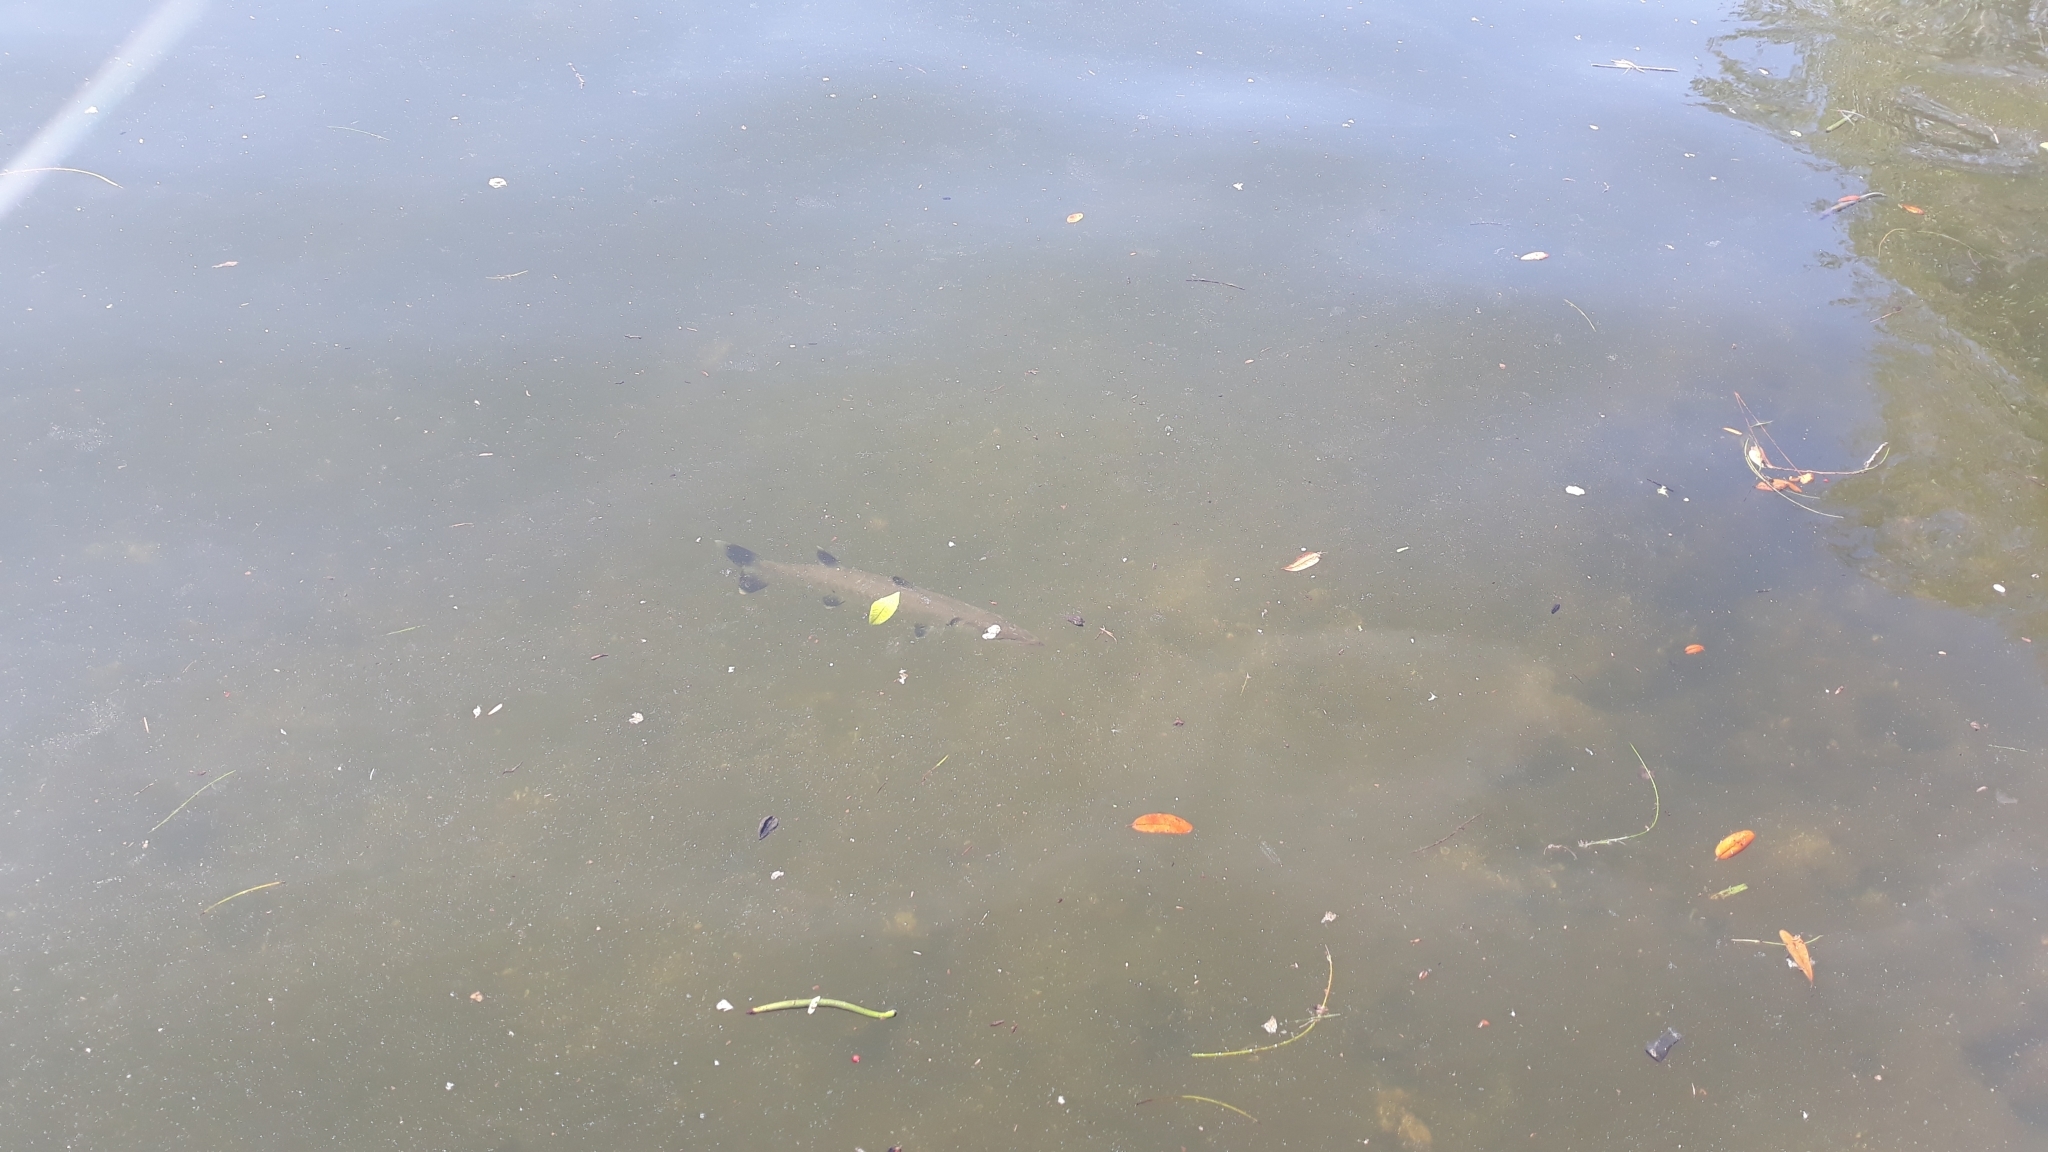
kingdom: Animalia
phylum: Chordata
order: Perciformes
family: Sphyraenidae
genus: Sphyraena
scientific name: Sphyraena barracuda
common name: Great barracuda
